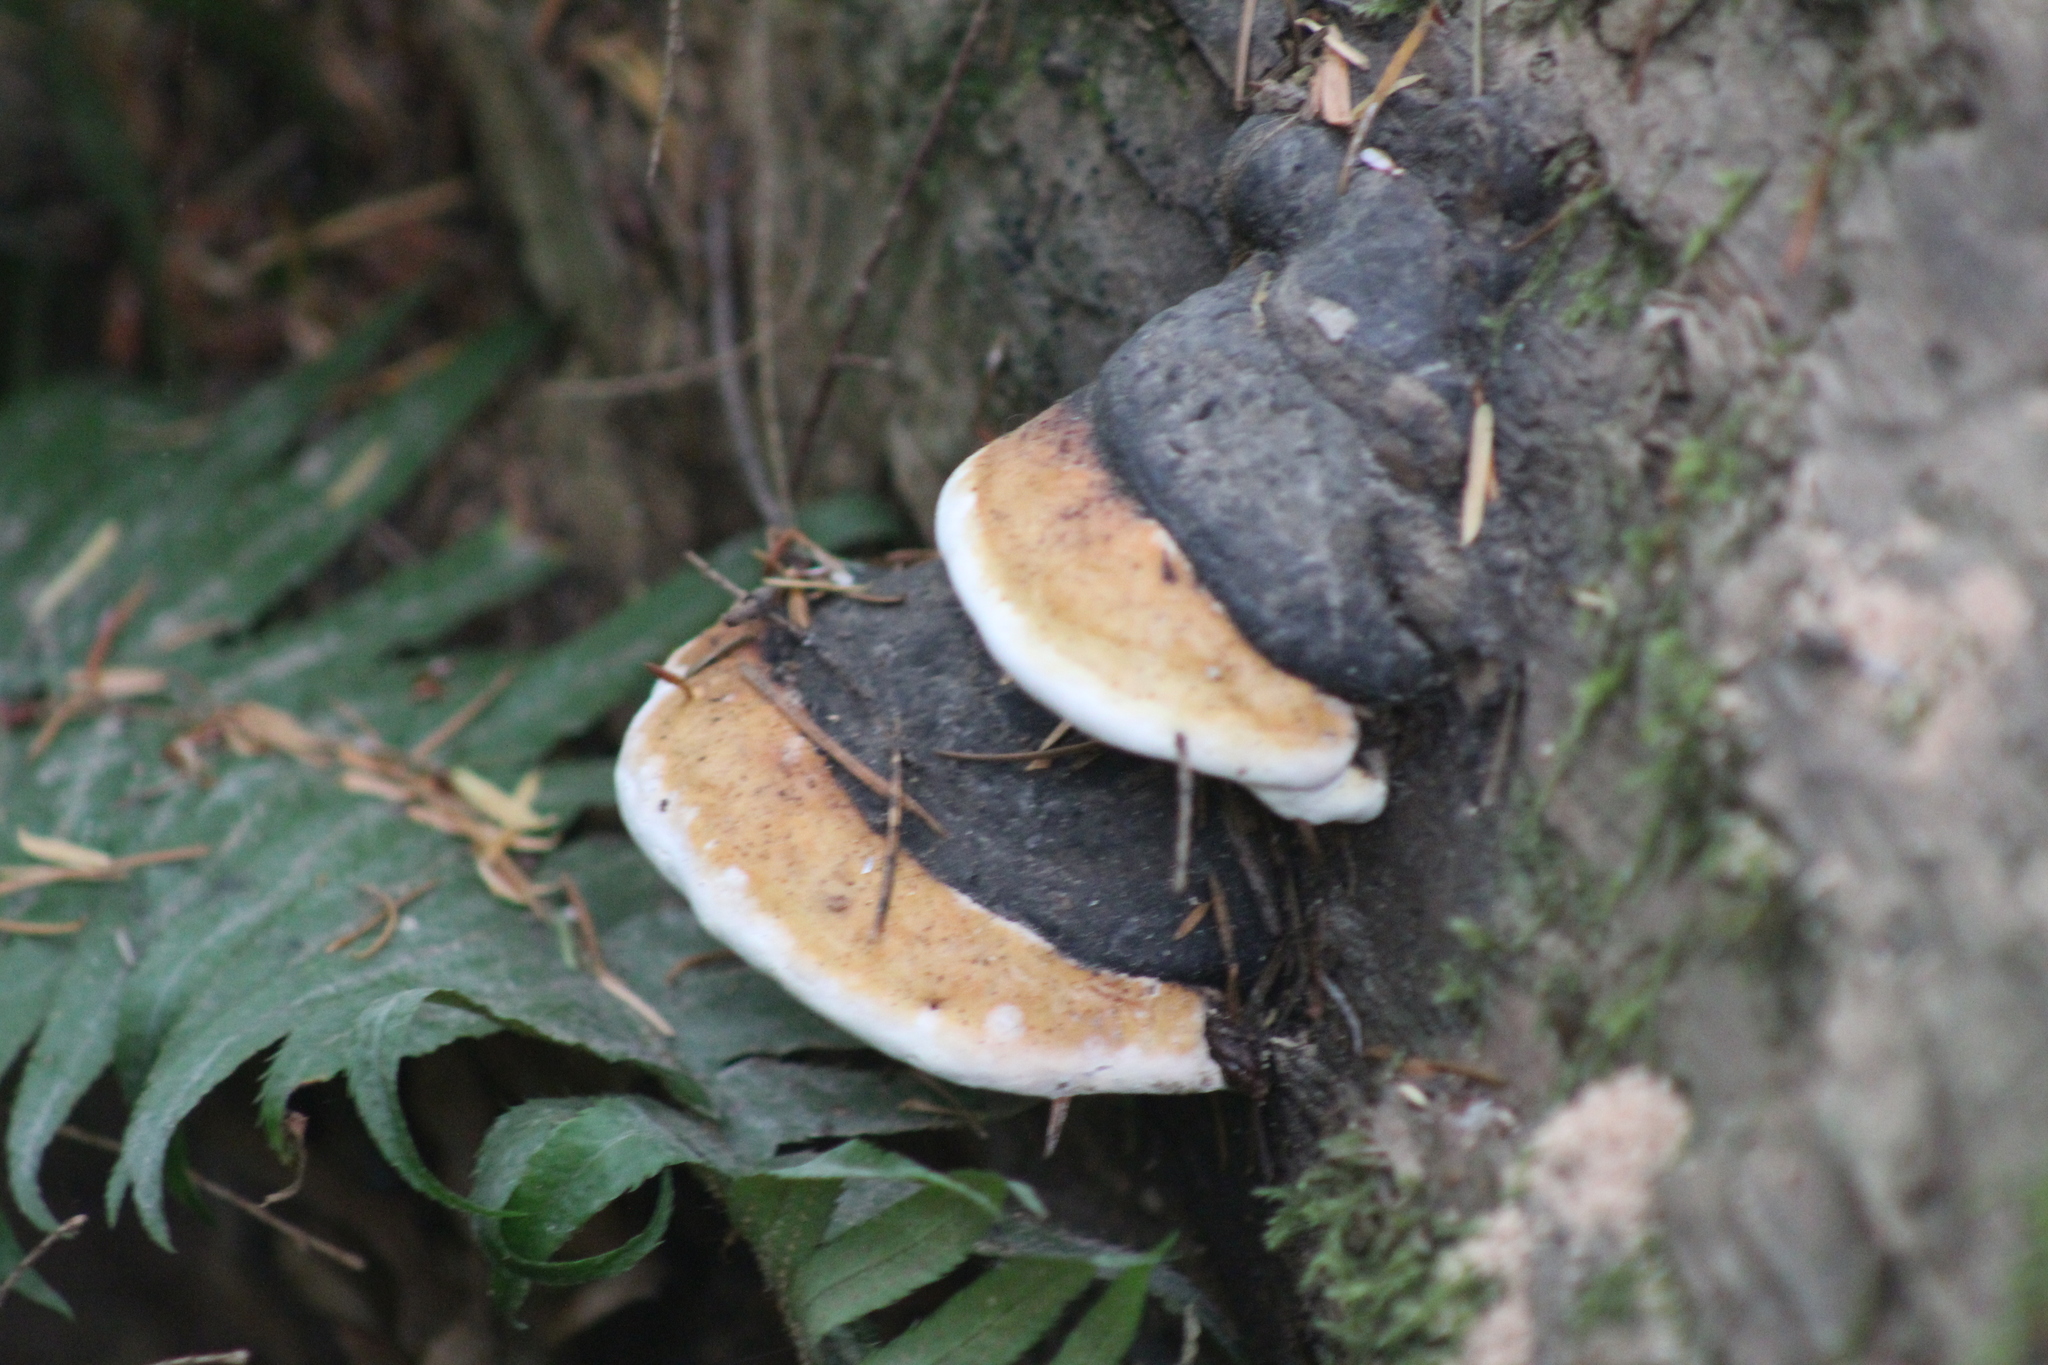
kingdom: Fungi
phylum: Basidiomycota
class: Agaricomycetes
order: Polyporales
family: Fomitopsidaceae
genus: Fomitopsis
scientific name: Fomitopsis mounceae
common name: Northern red belt
